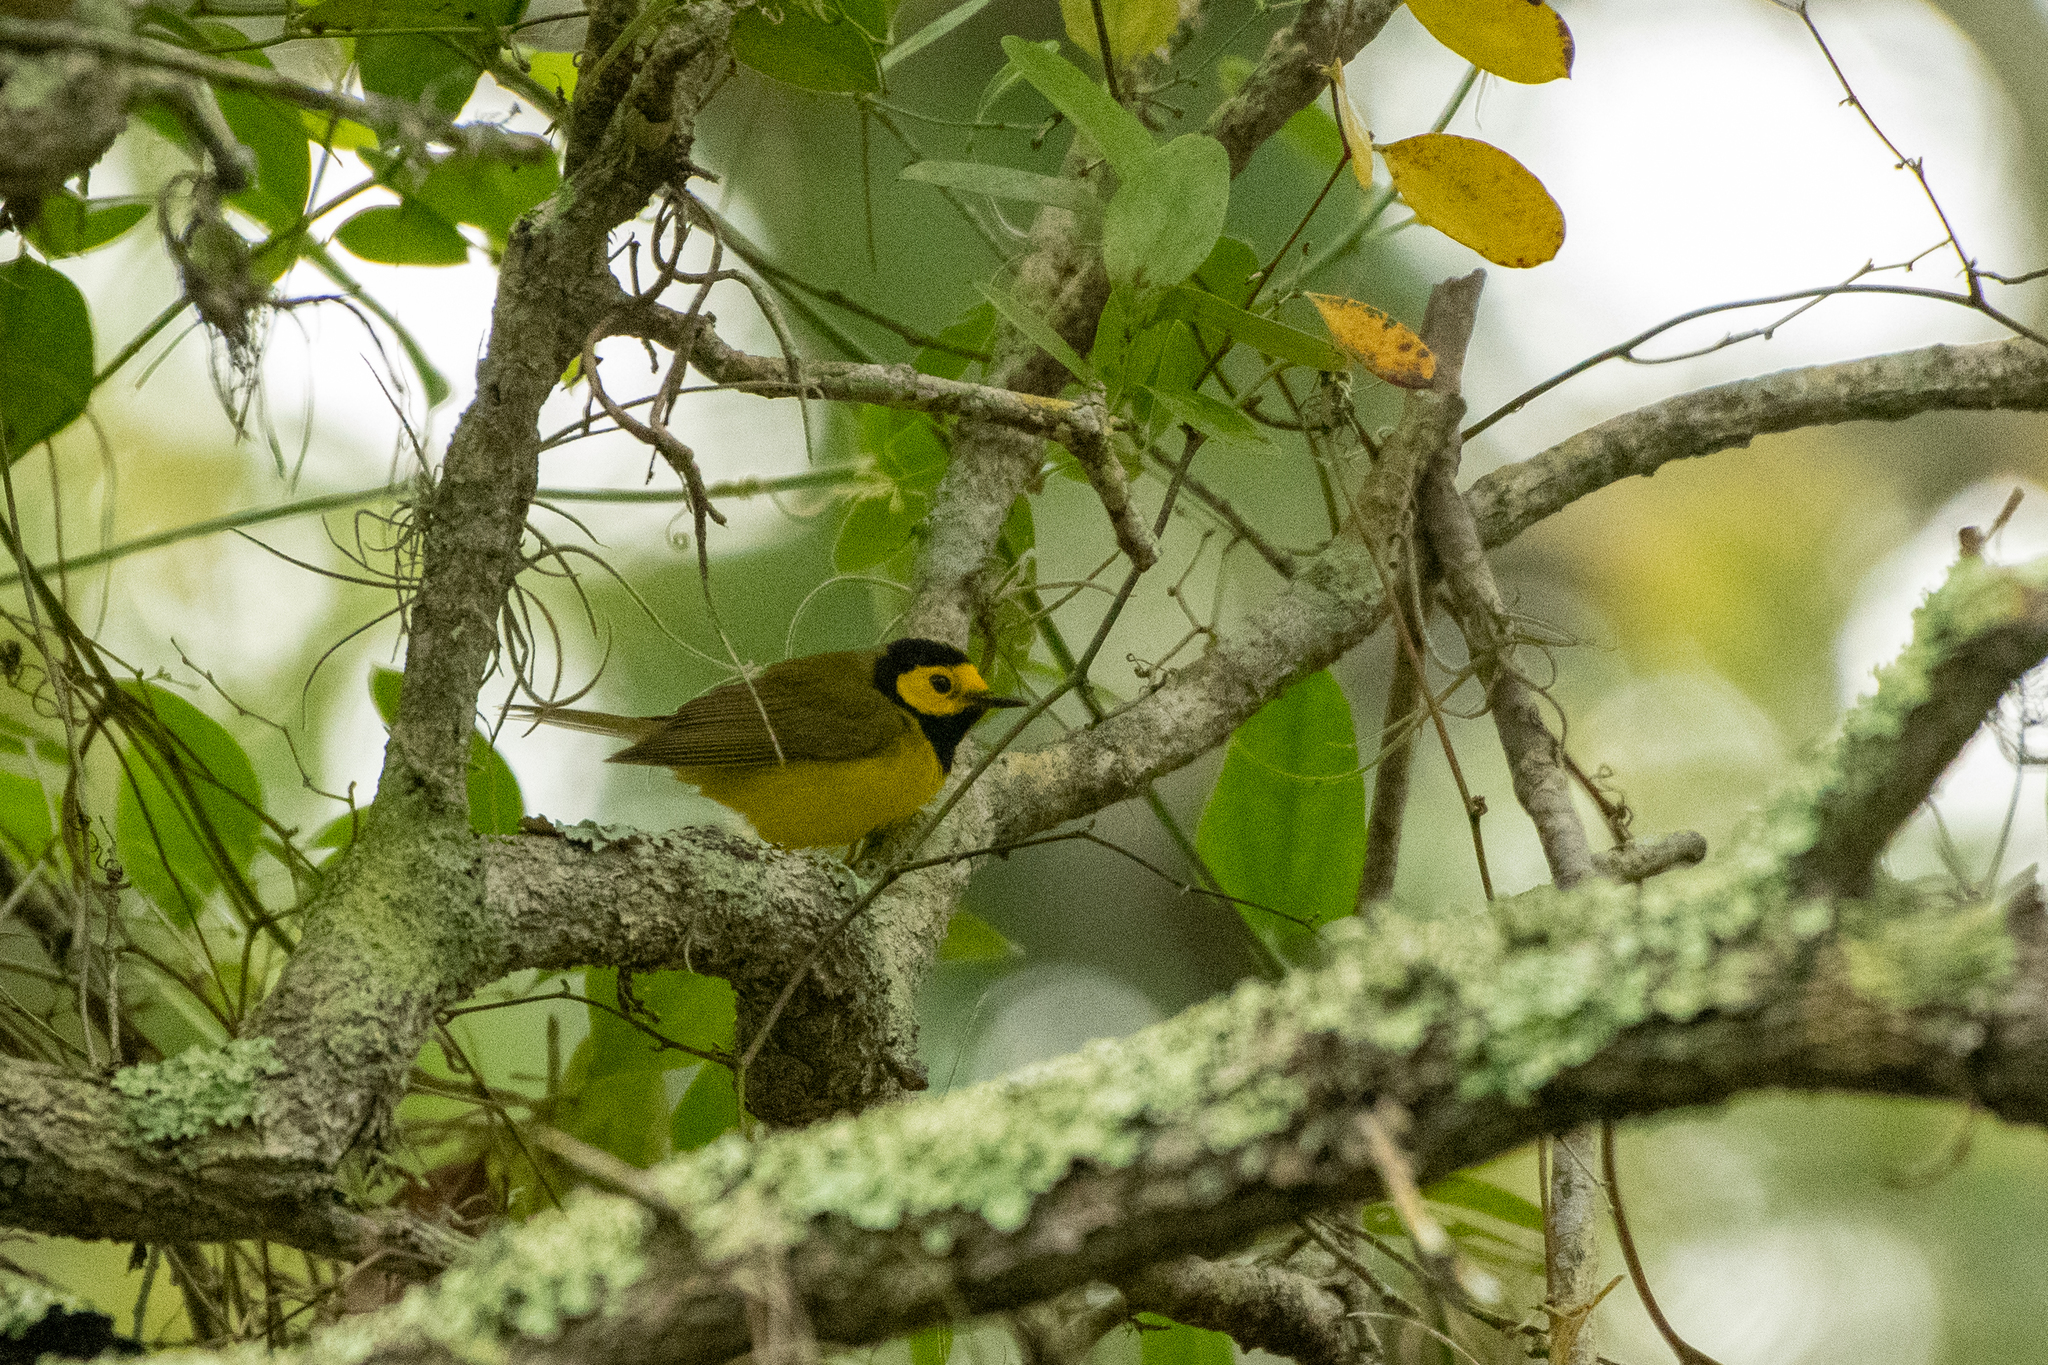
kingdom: Animalia
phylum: Chordata
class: Aves
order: Passeriformes
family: Parulidae
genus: Setophaga
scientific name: Setophaga citrina
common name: Hooded warbler
